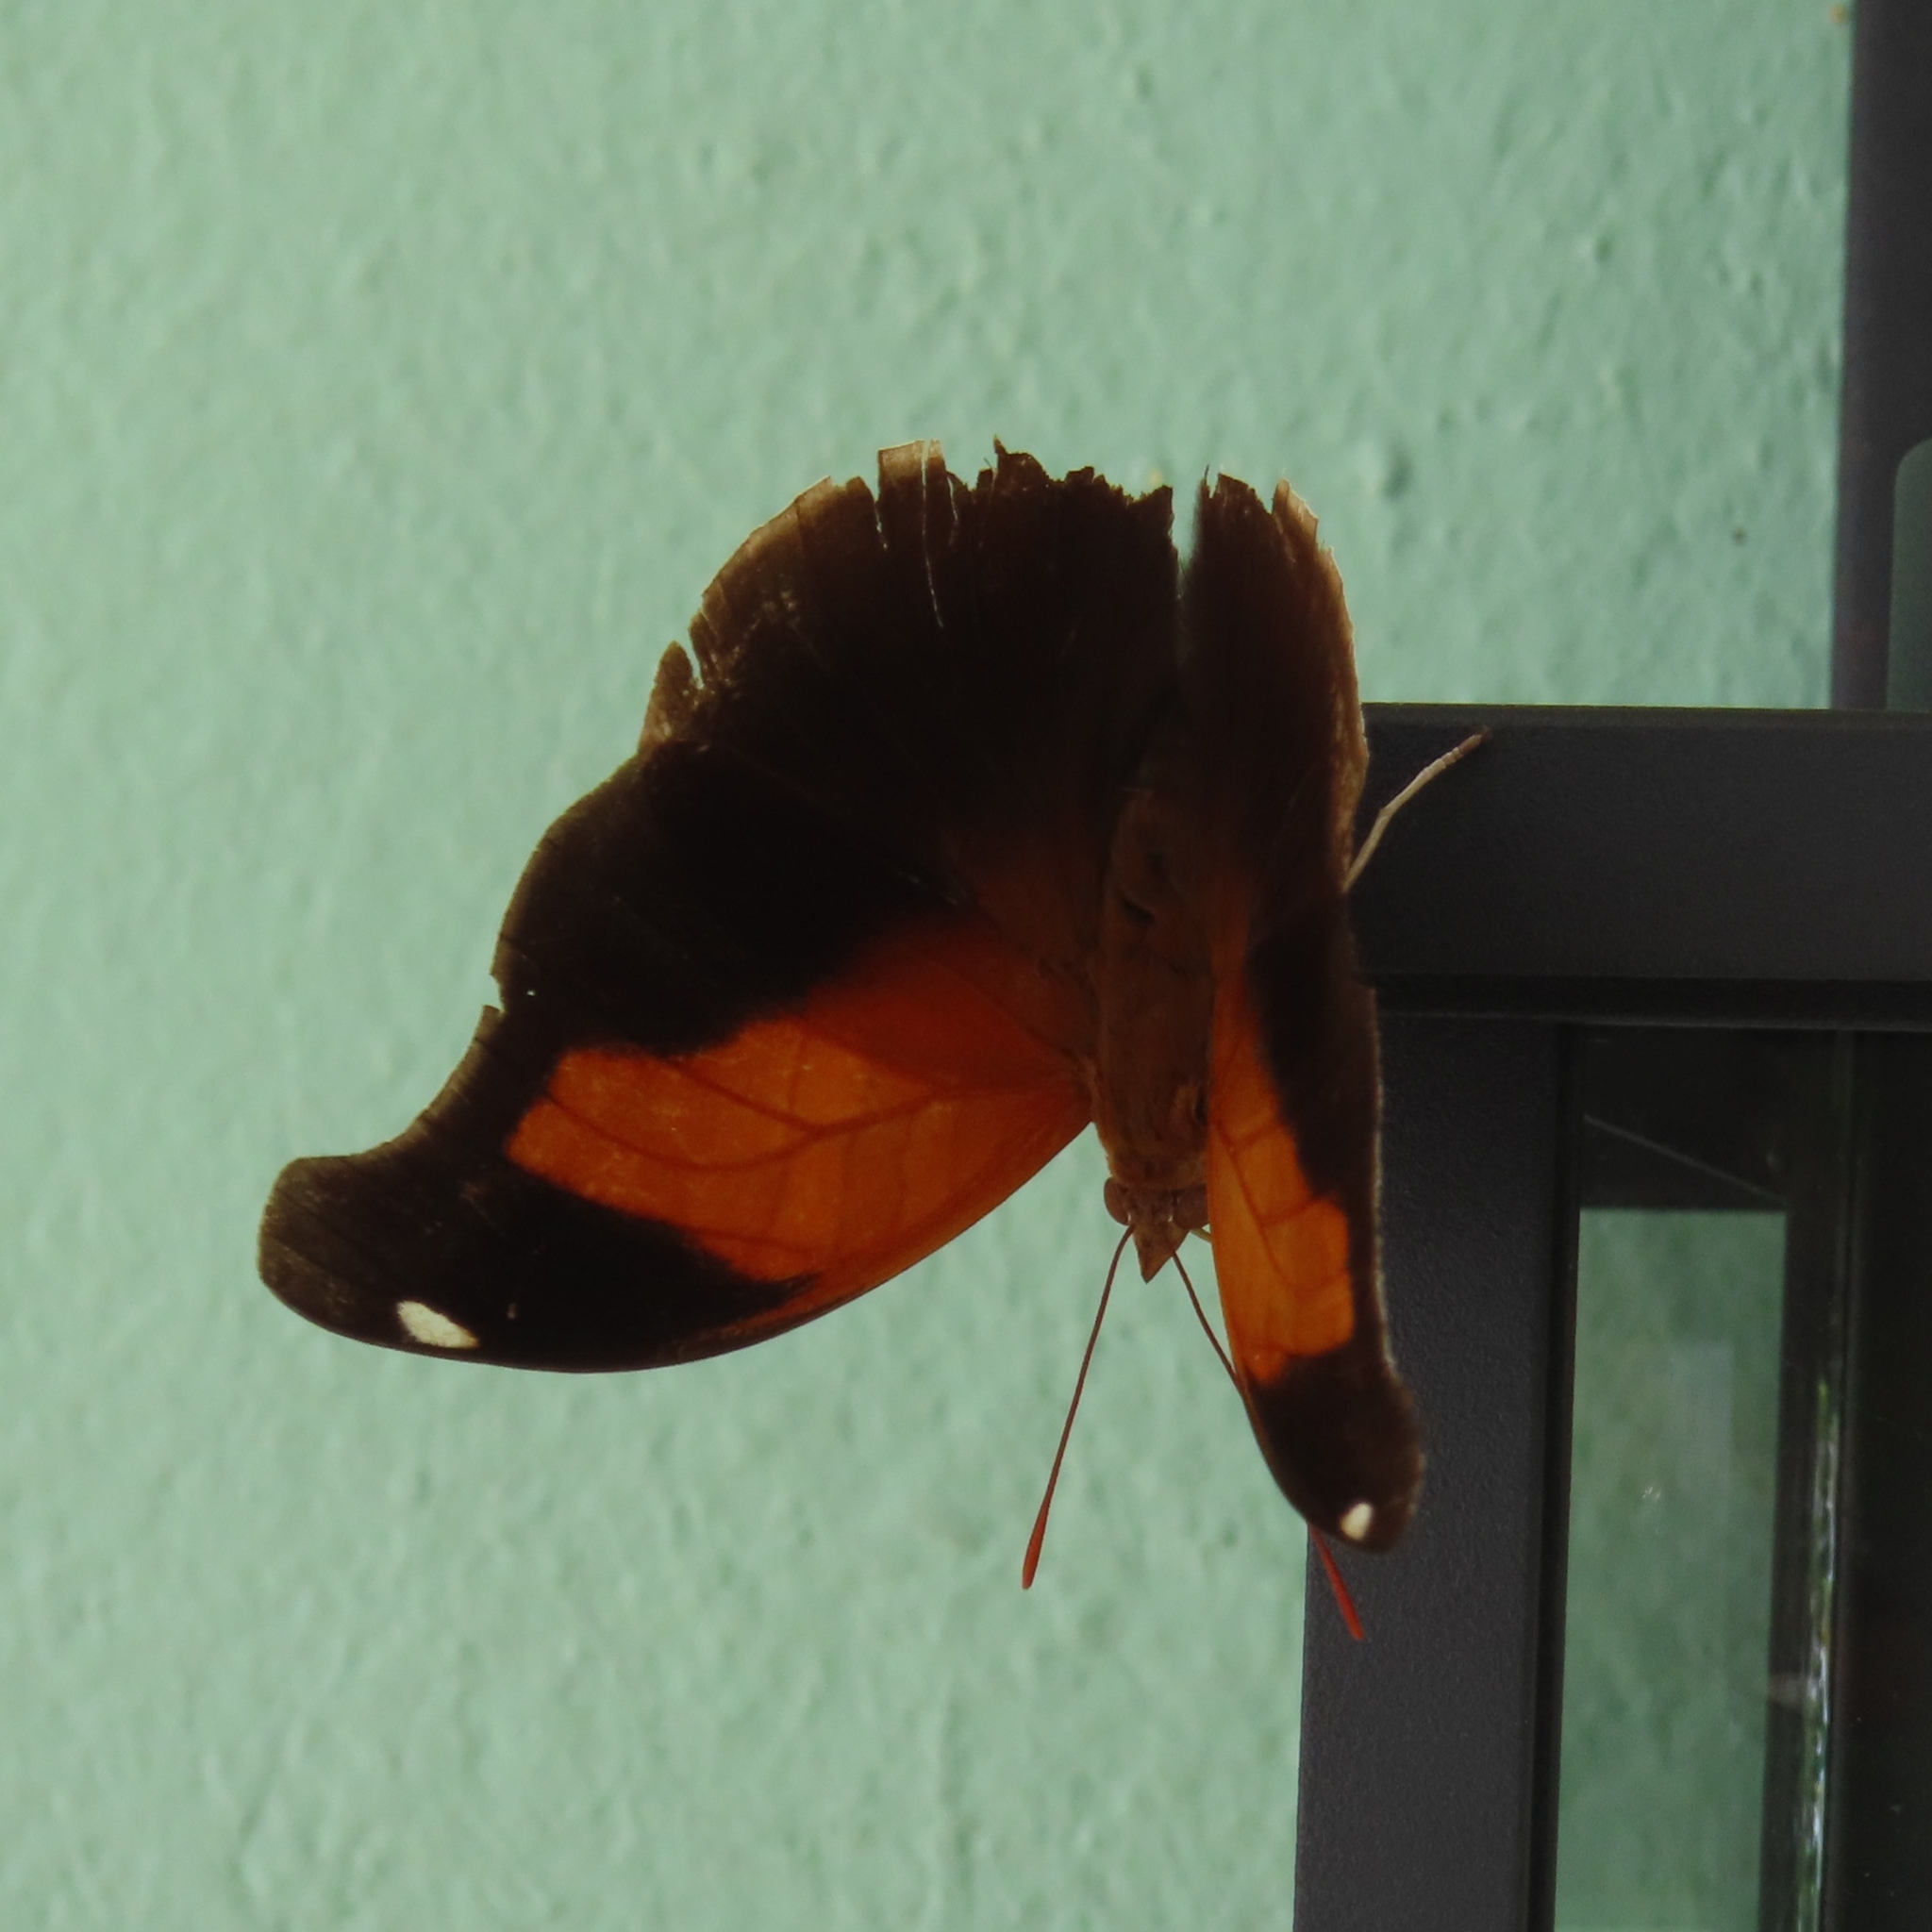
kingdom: Animalia
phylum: Arthropoda
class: Insecta
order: Lepidoptera
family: Nymphalidae
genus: Historis
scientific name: Historis odius
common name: Orion cecropian
